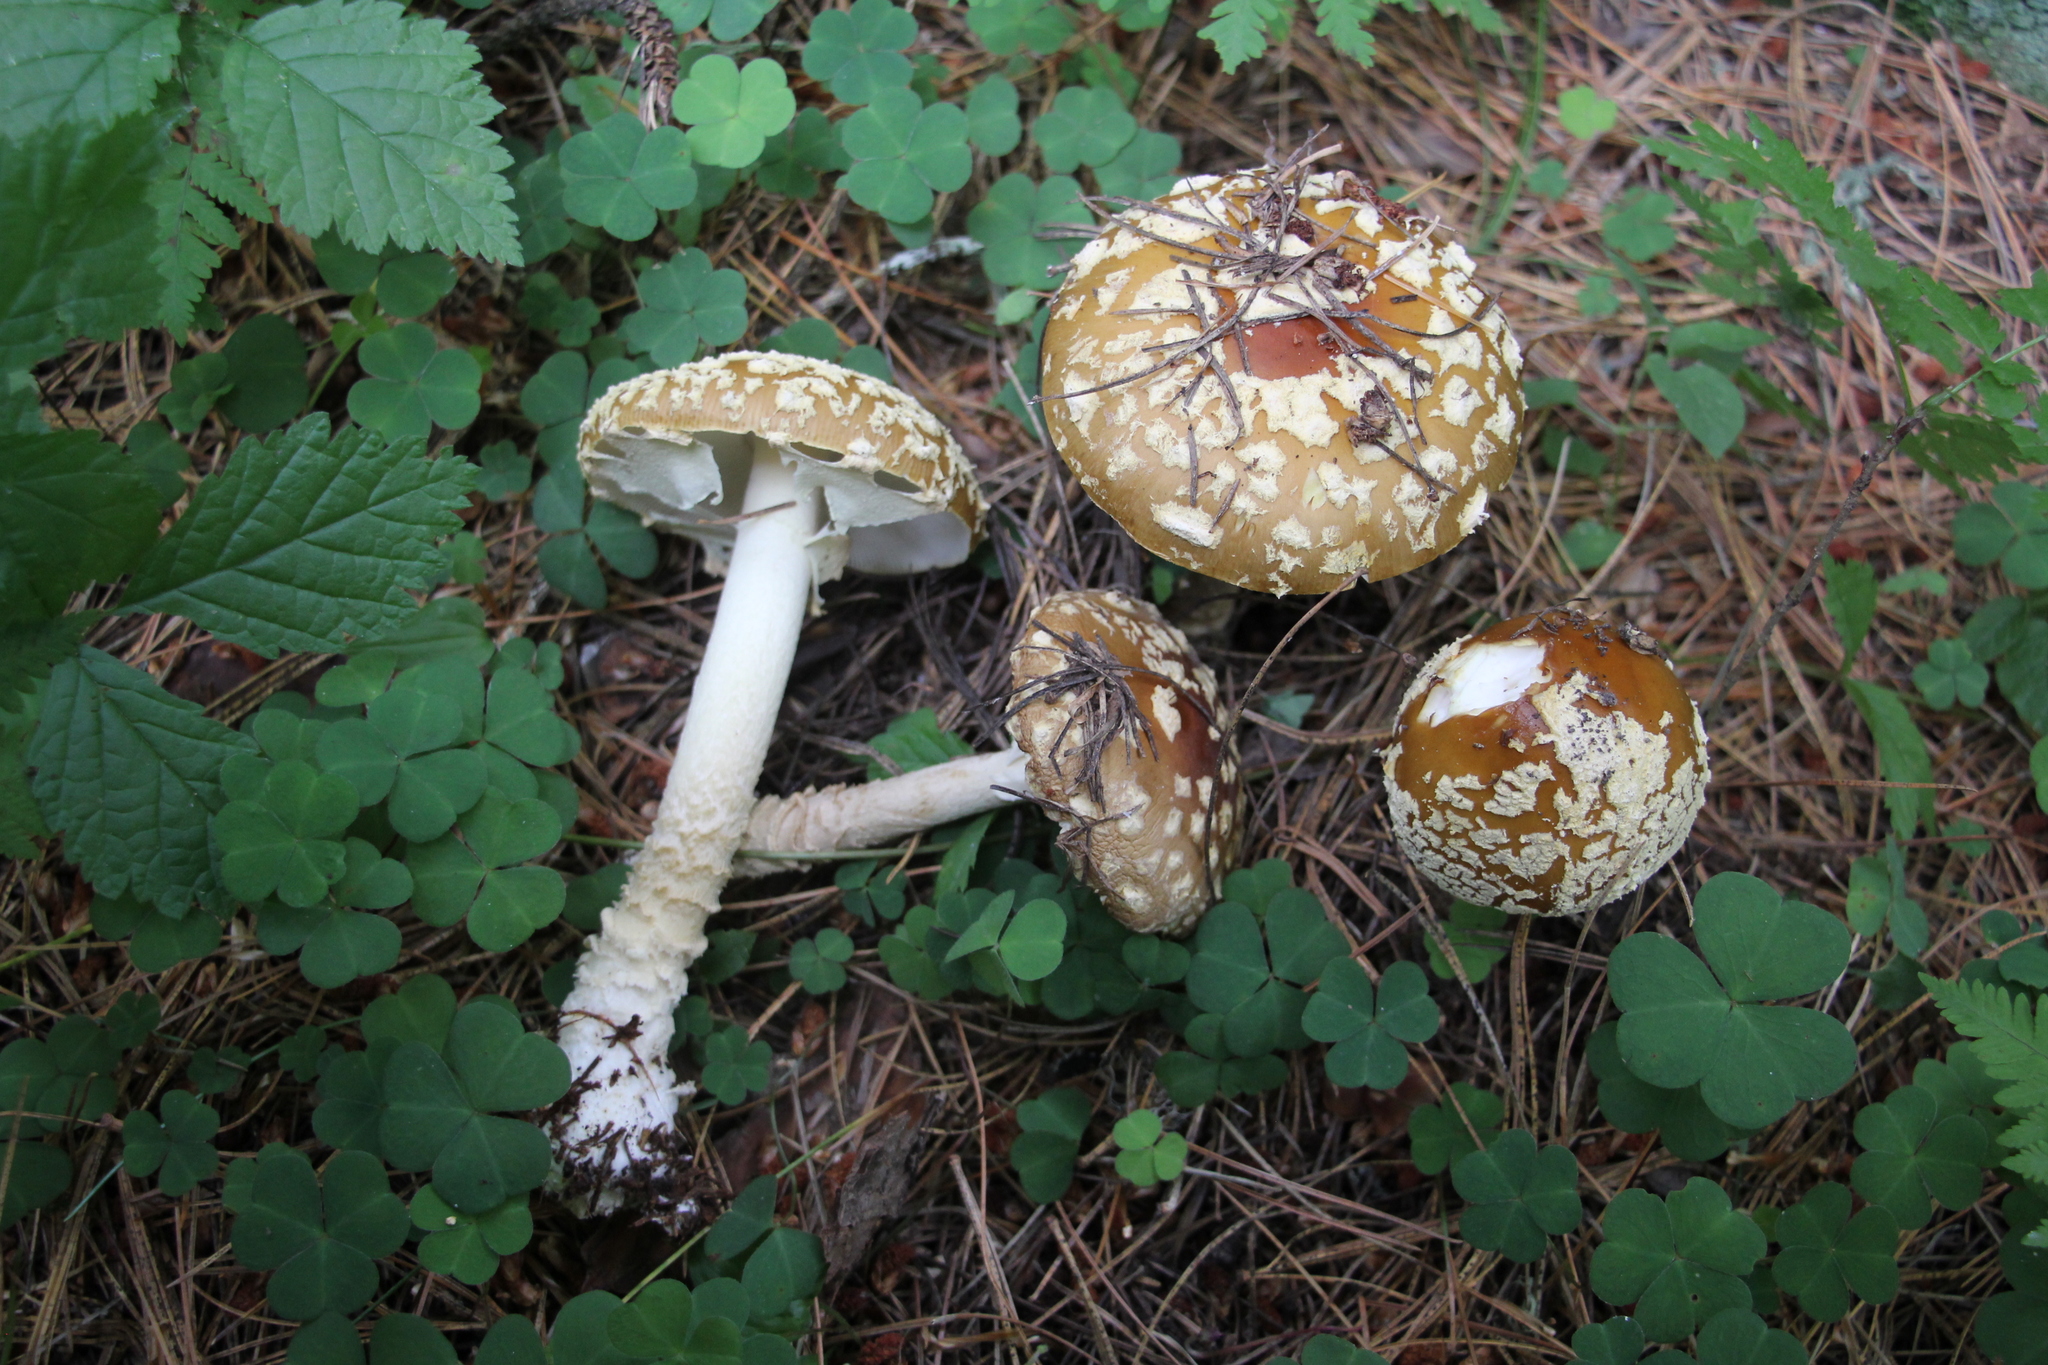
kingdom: Fungi
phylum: Basidiomycota
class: Agaricomycetes
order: Agaricales
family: Amanitaceae
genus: Amanita
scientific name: Amanita regalis
